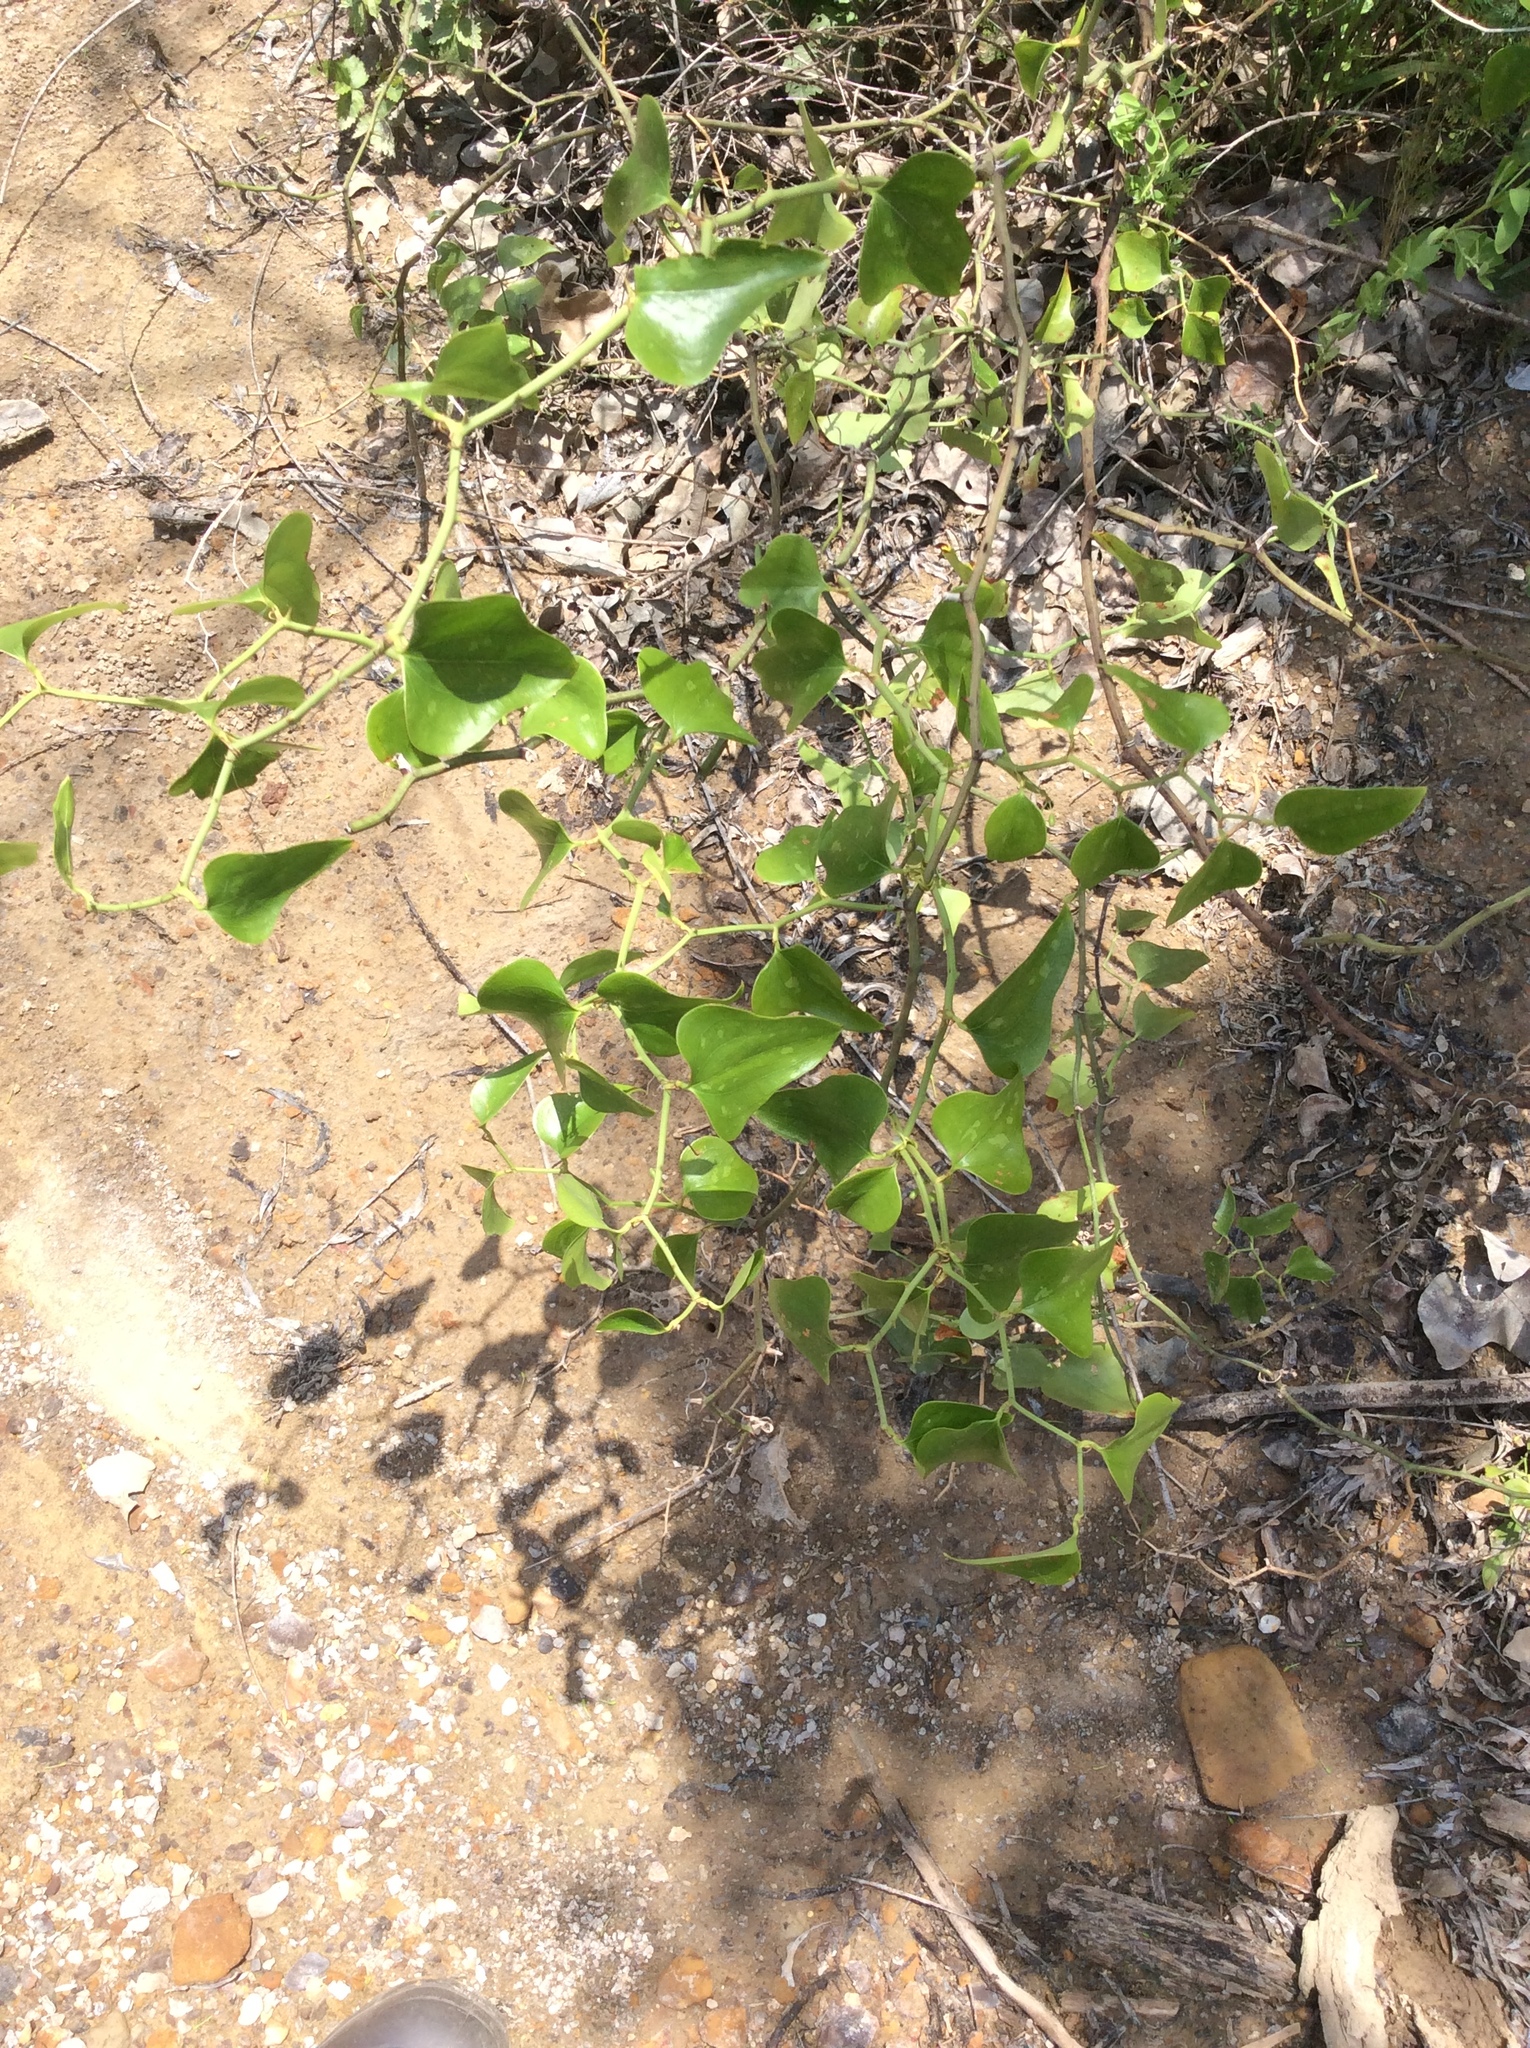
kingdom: Plantae
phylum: Tracheophyta
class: Liliopsida
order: Liliales
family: Smilacaceae
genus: Smilax
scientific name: Smilax bona-nox
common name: Catbrier
